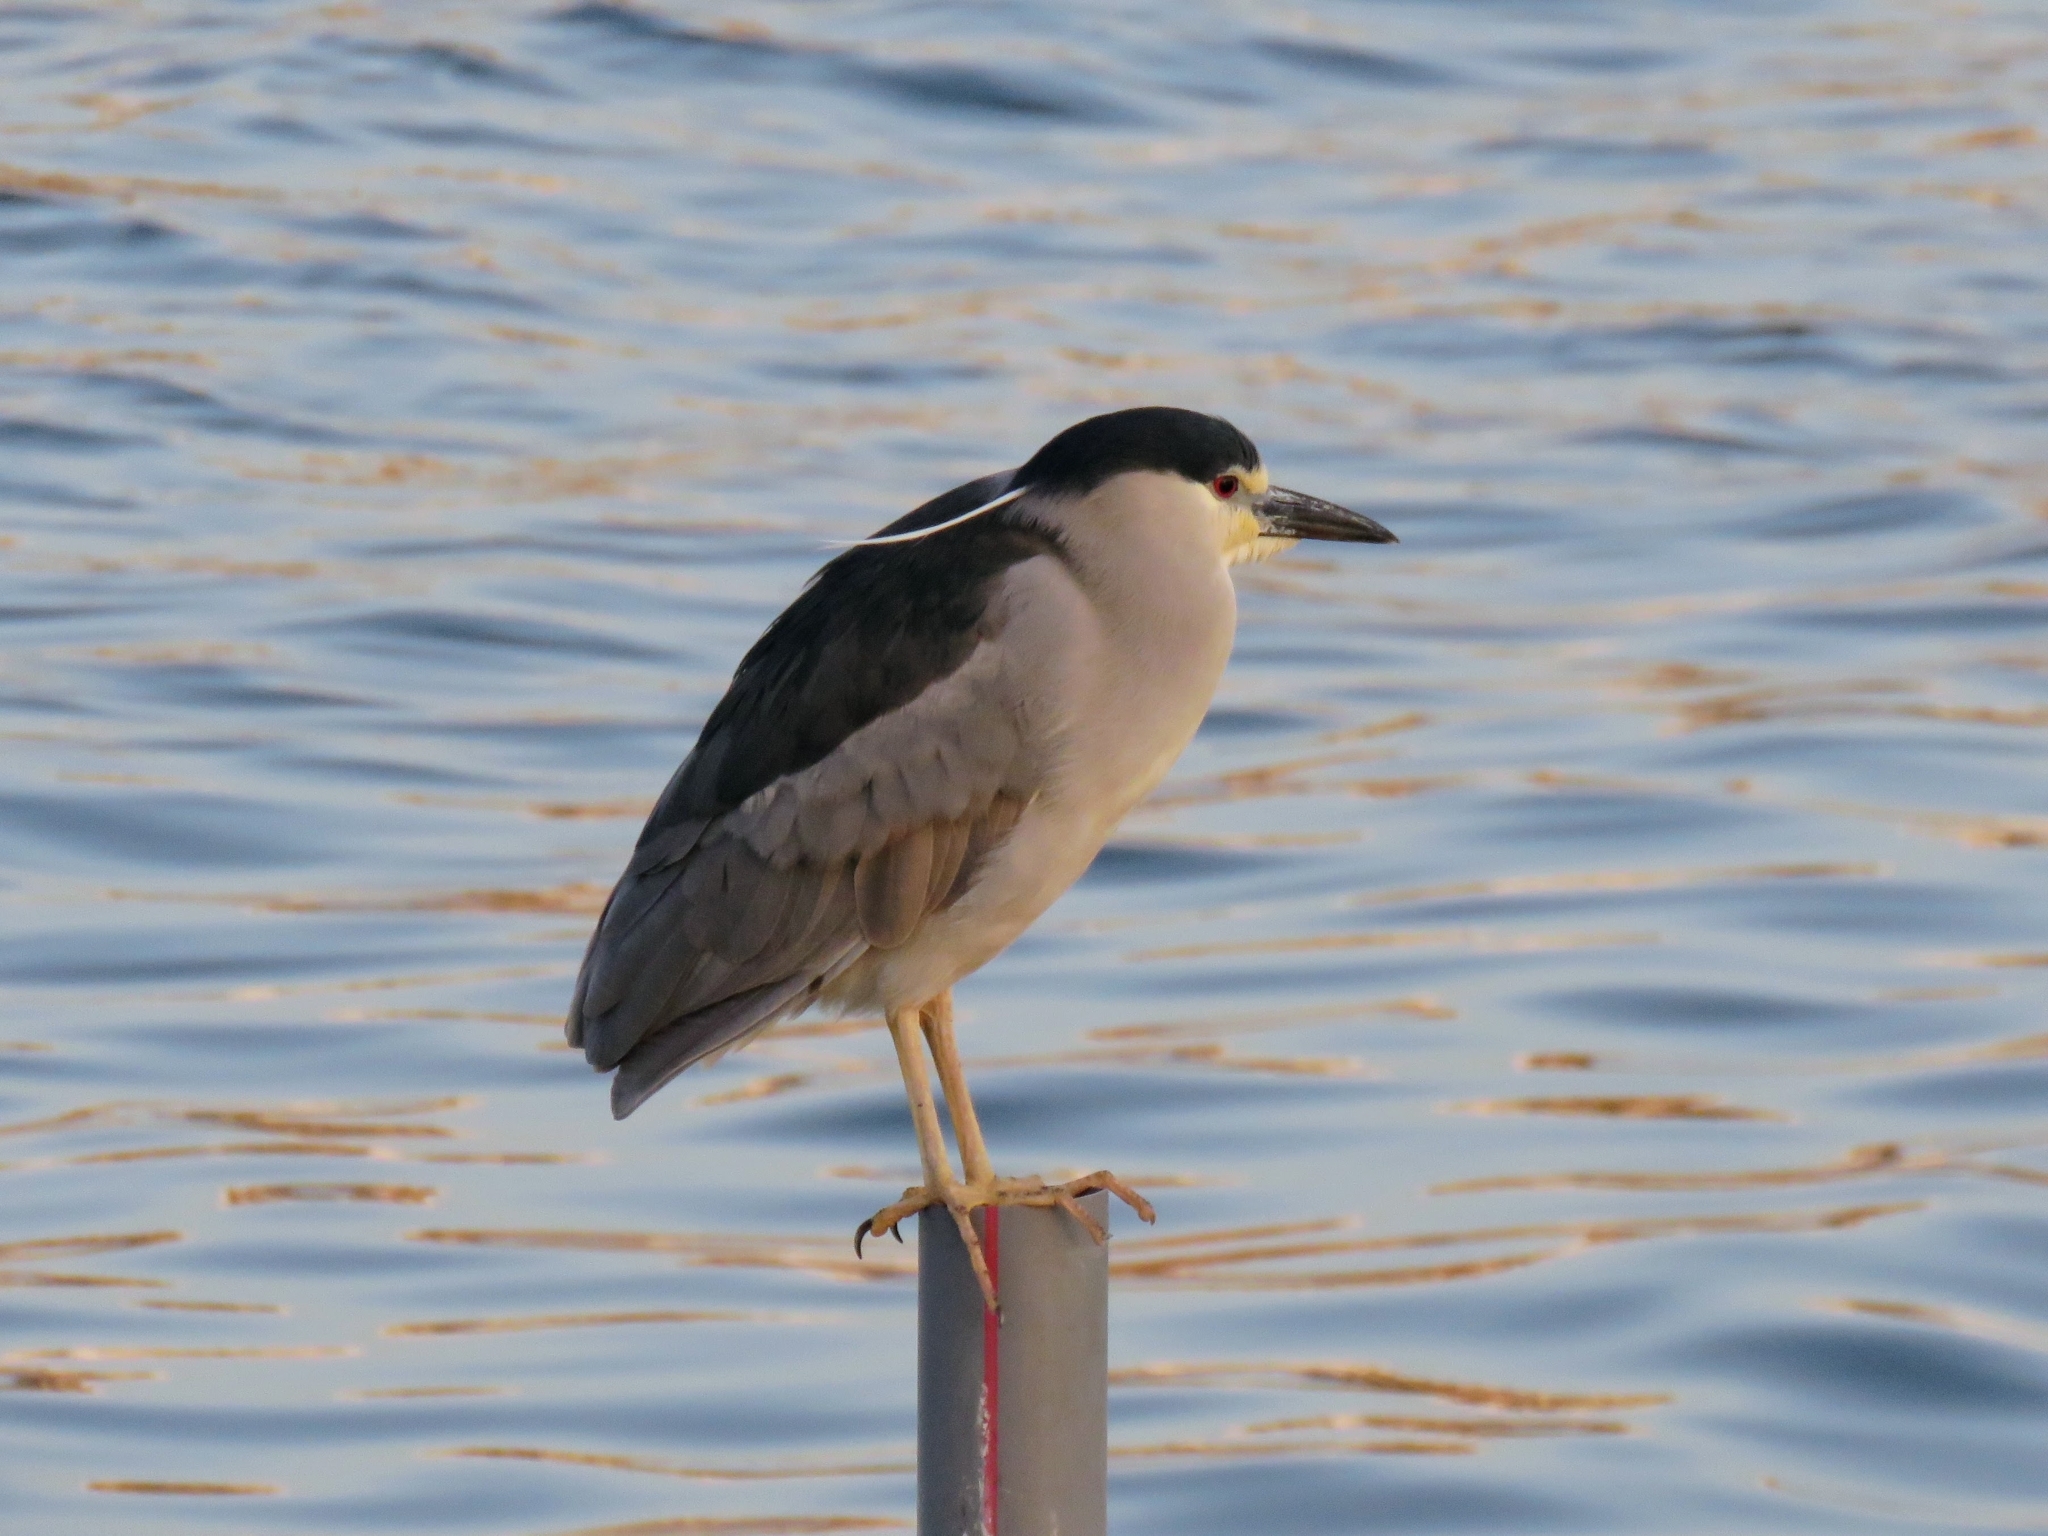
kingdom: Animalia
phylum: Chordata
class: Aves
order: Pelecaniformes
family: Ardeidae
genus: Nycticorax
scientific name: Nycticorax nycticorax
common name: Black-crowned night heron
